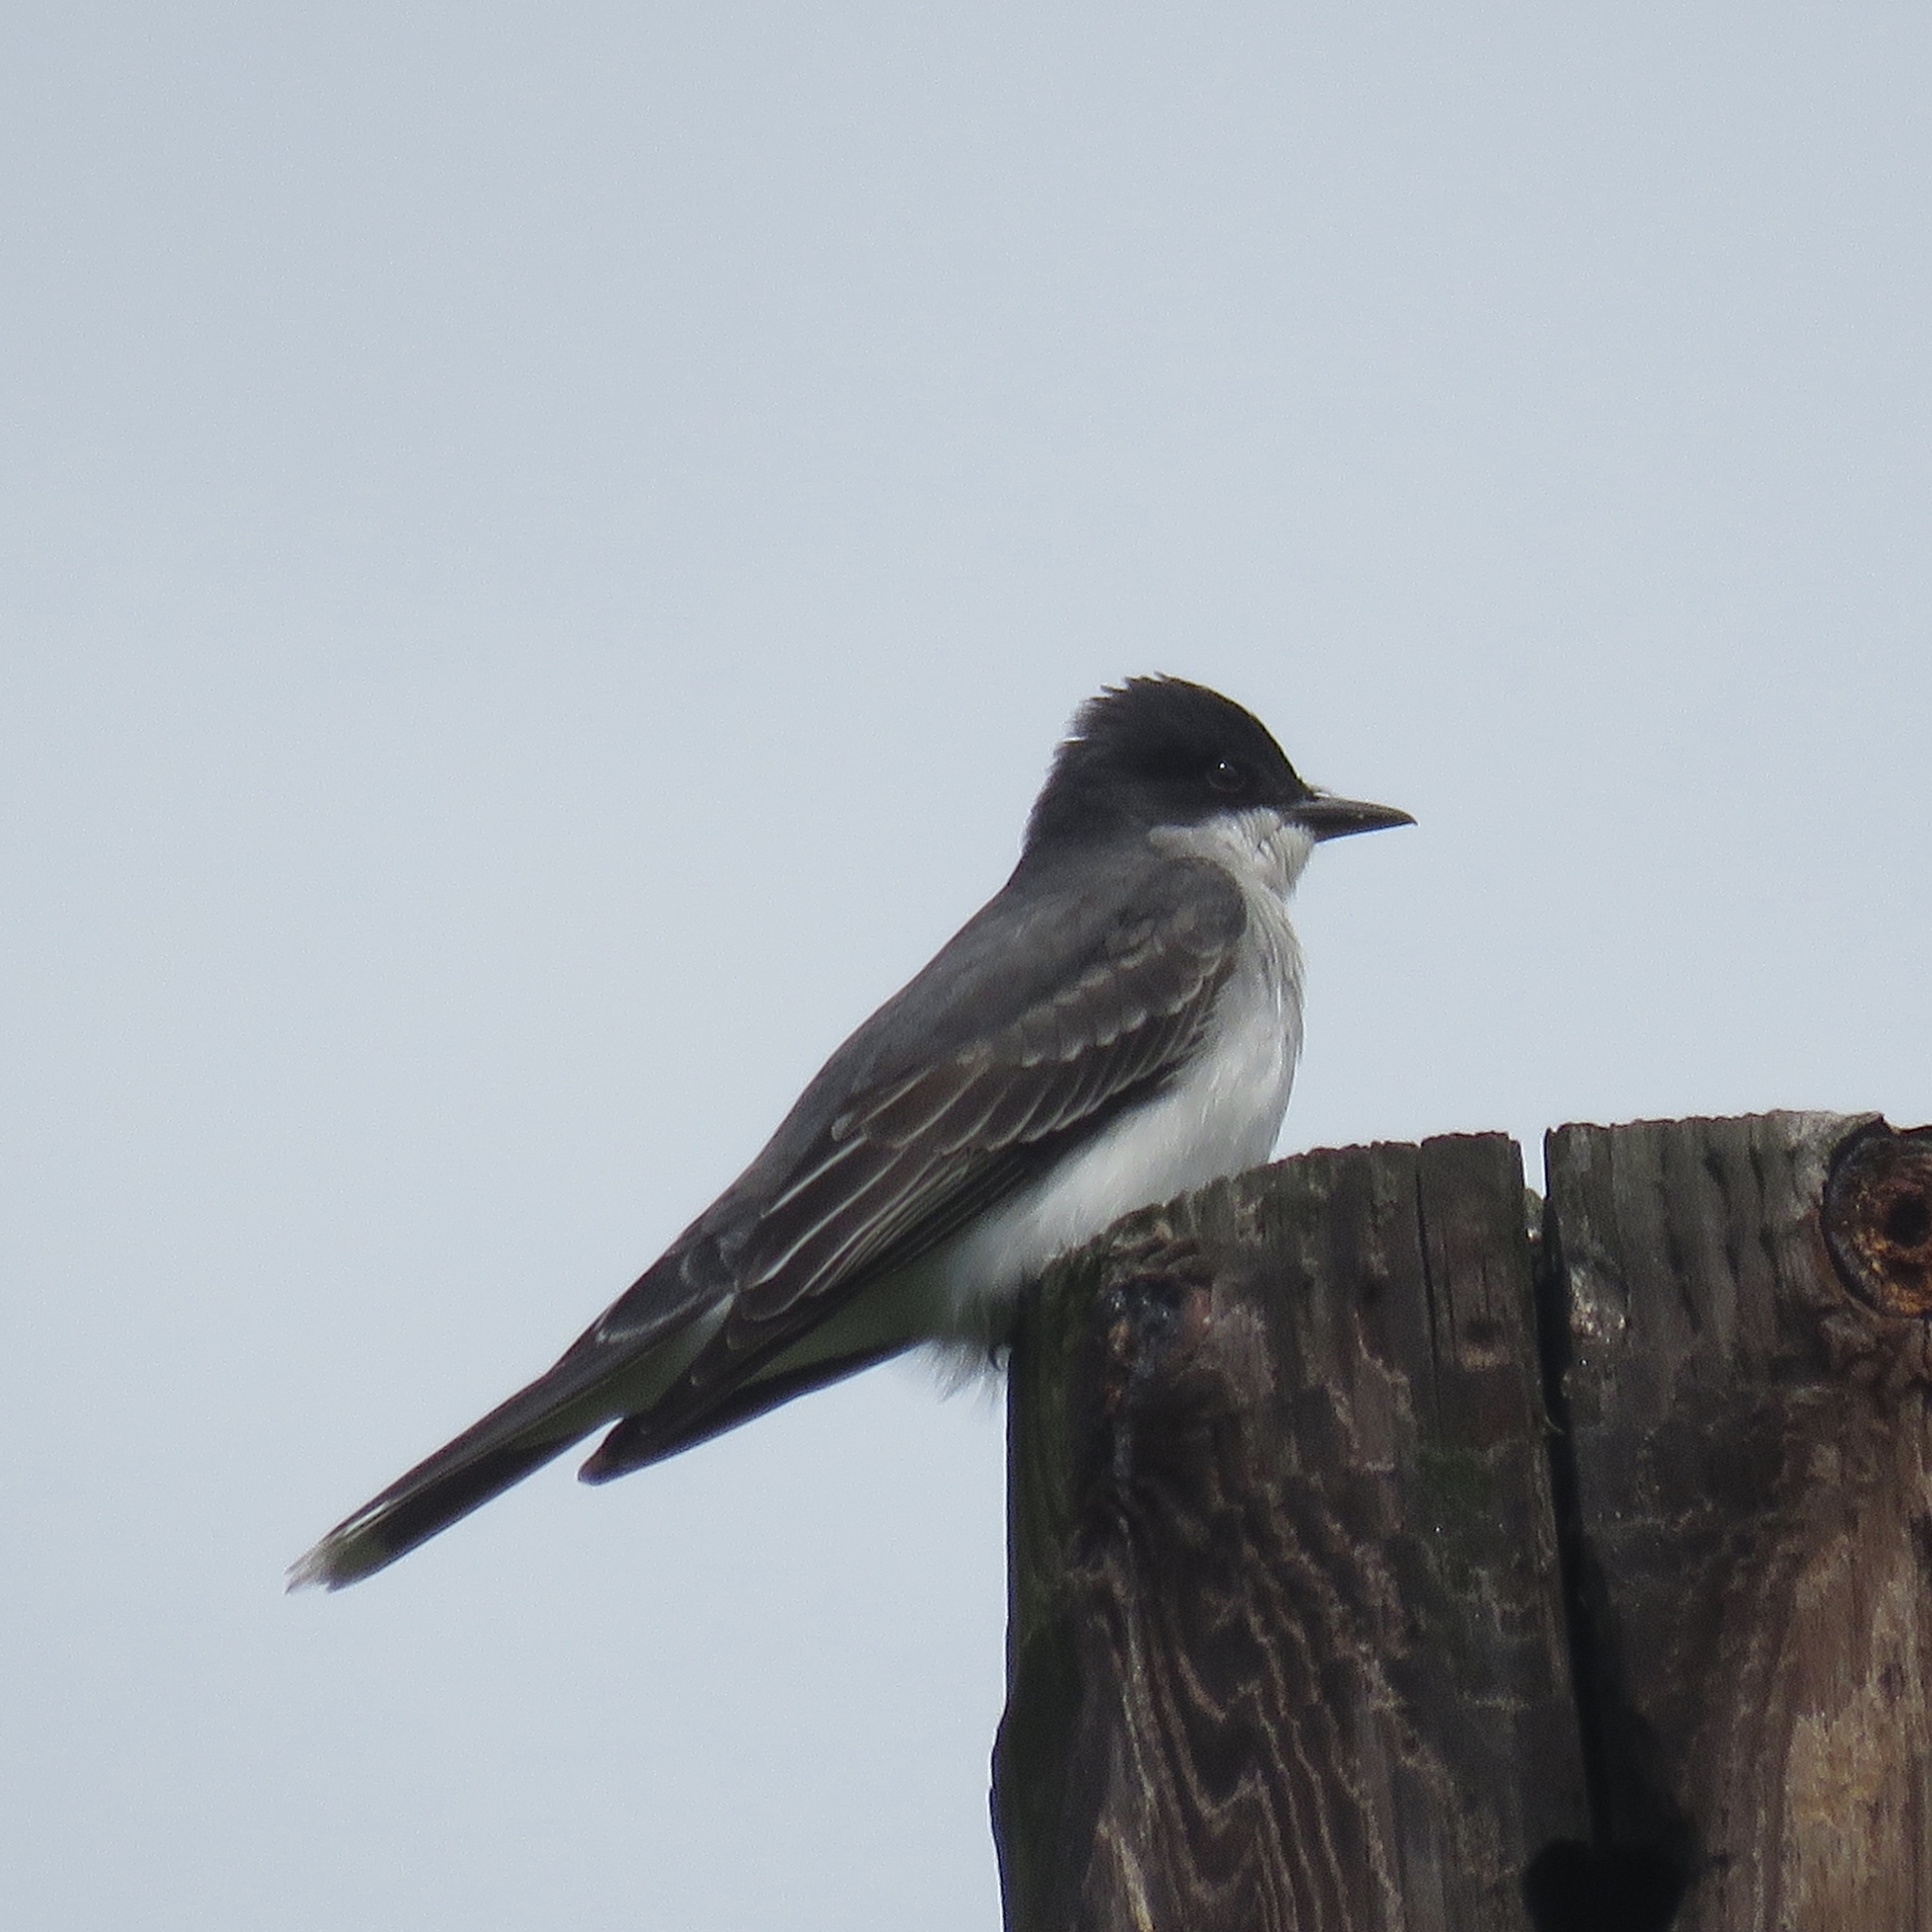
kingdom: Animalia
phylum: Chordata
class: Aves
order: Passeriformes
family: Tyrannidae
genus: Tyrannus
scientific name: Tyrannus tyrannus
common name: Eastern kingbird
